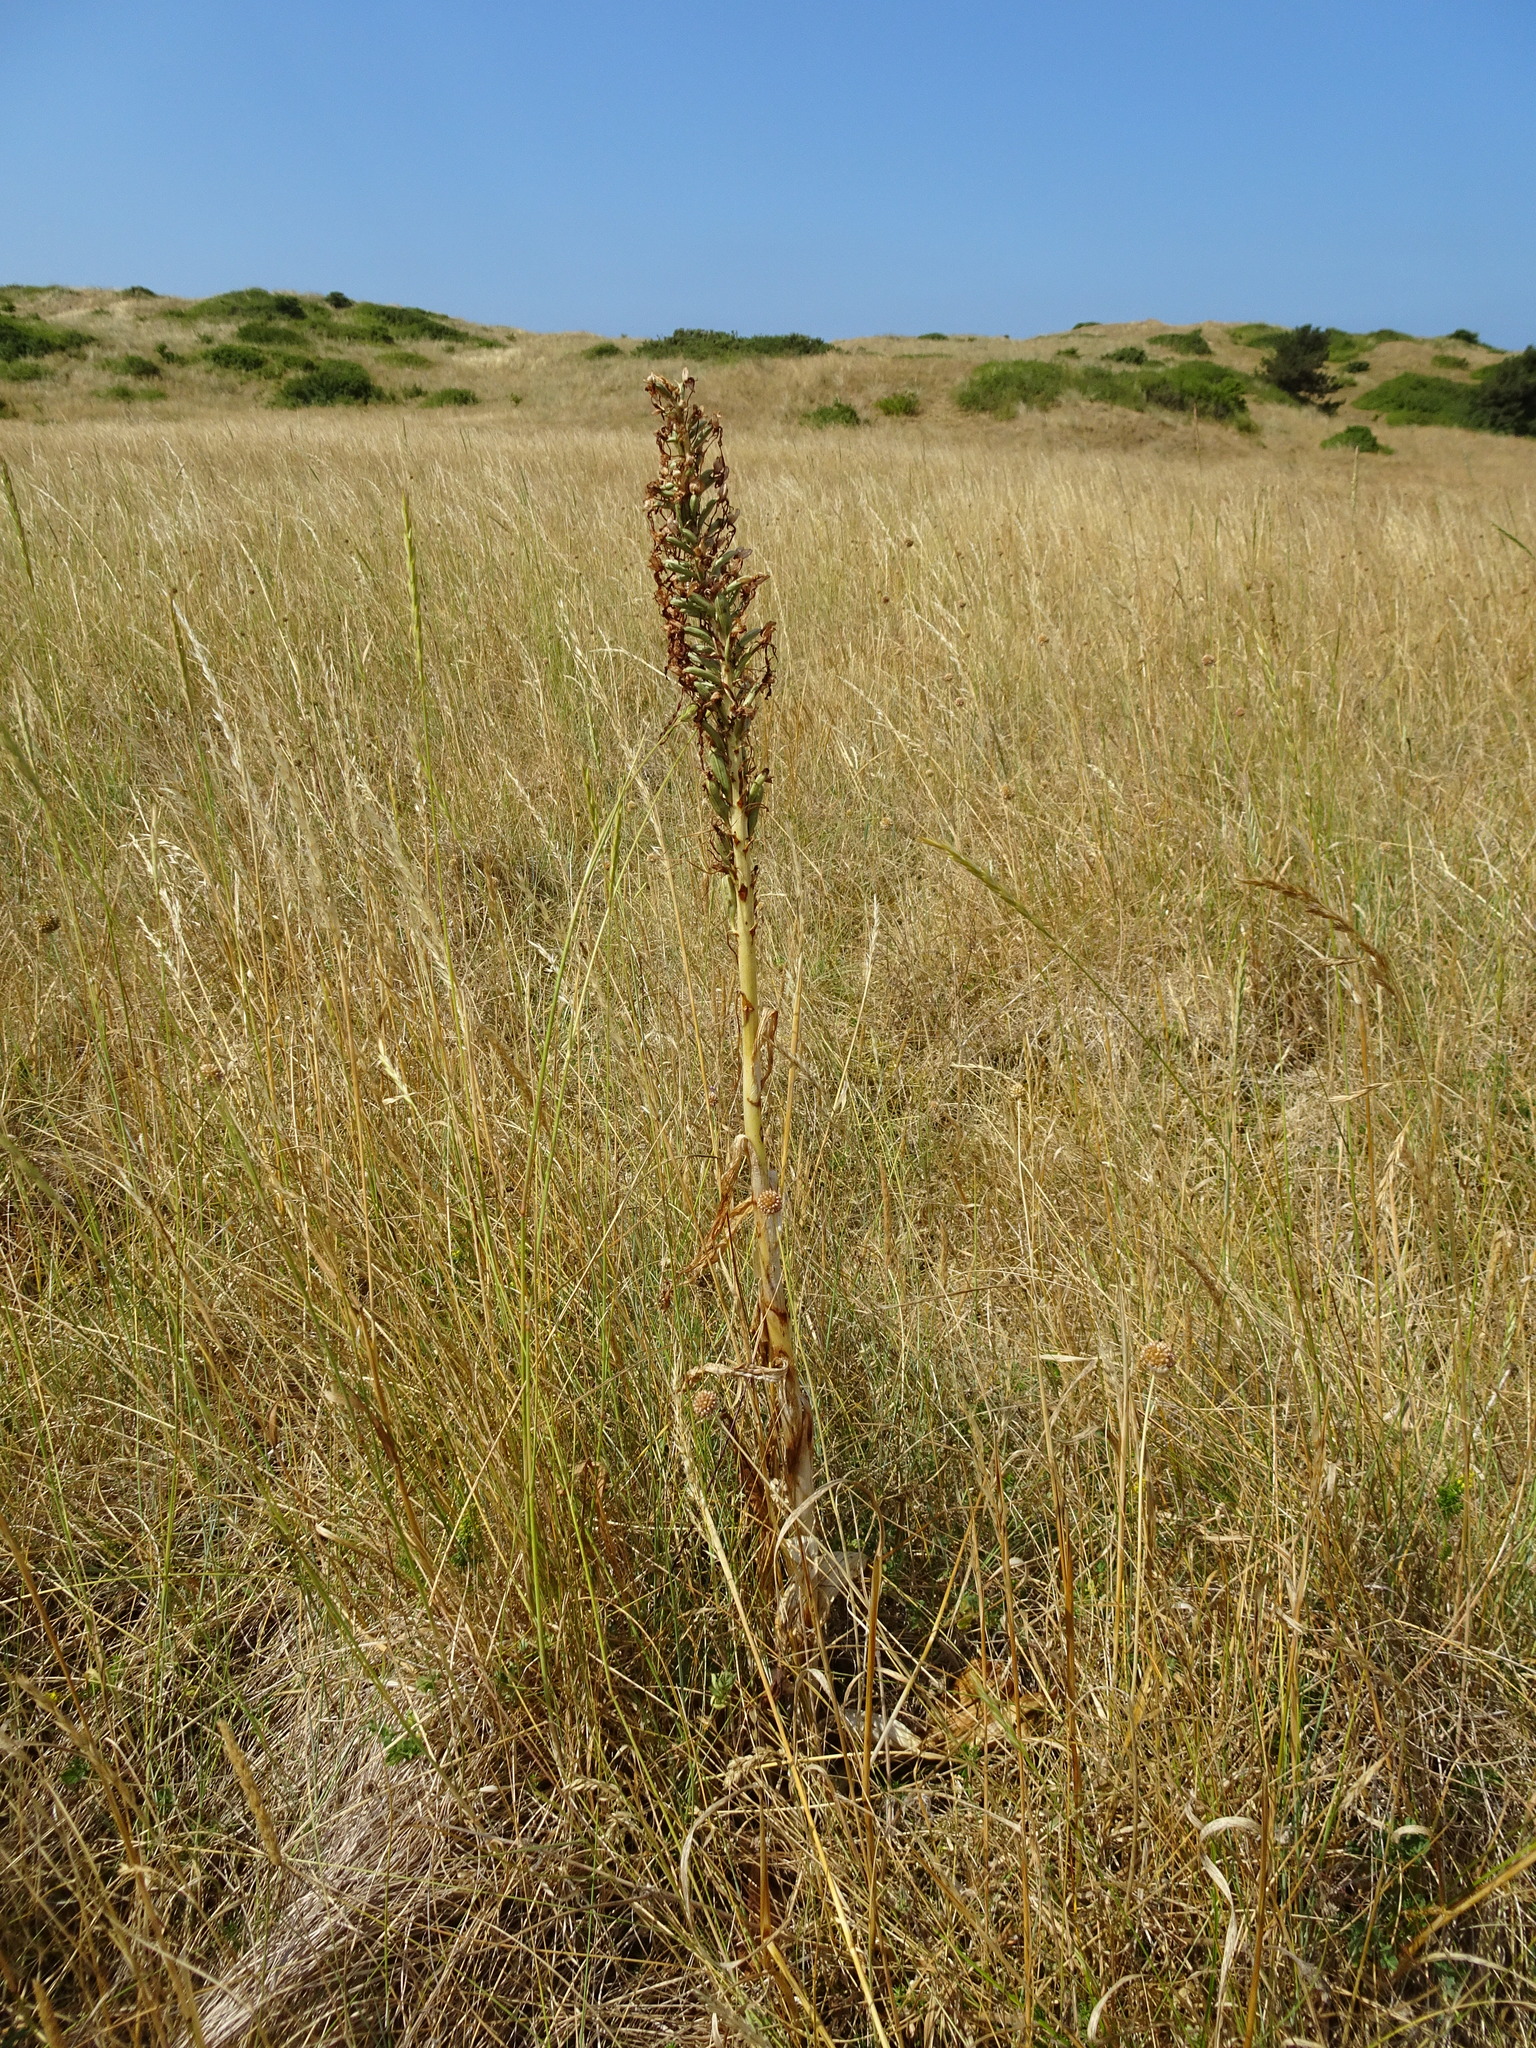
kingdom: Plantae
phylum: Tracheophyta
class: Liliopsida
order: Asparagales
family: Orchidaceae
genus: Himantoglossum
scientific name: Himantoglossum hircinum
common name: Lizard orchid
